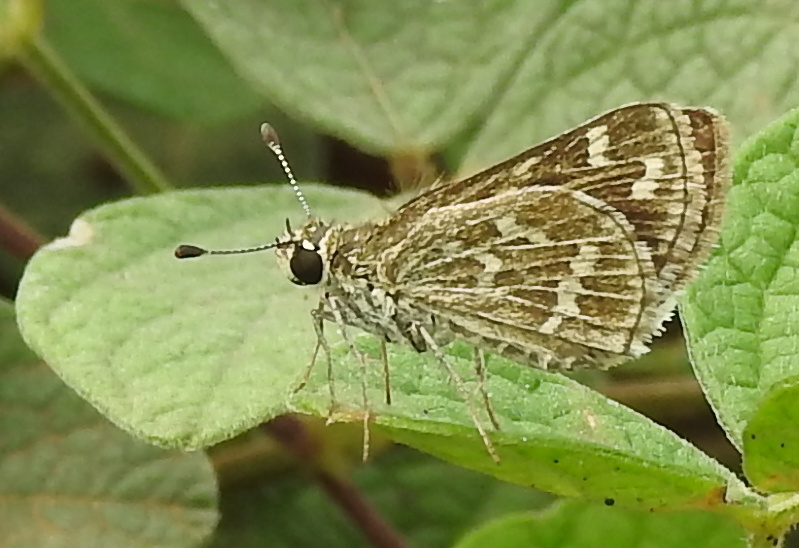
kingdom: Animalia
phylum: Arthropoda
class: Insecta
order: Lepidoptera
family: Hesperiidae
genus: Taractrocera
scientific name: Taractrocera maevius
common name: Common grass-dart
